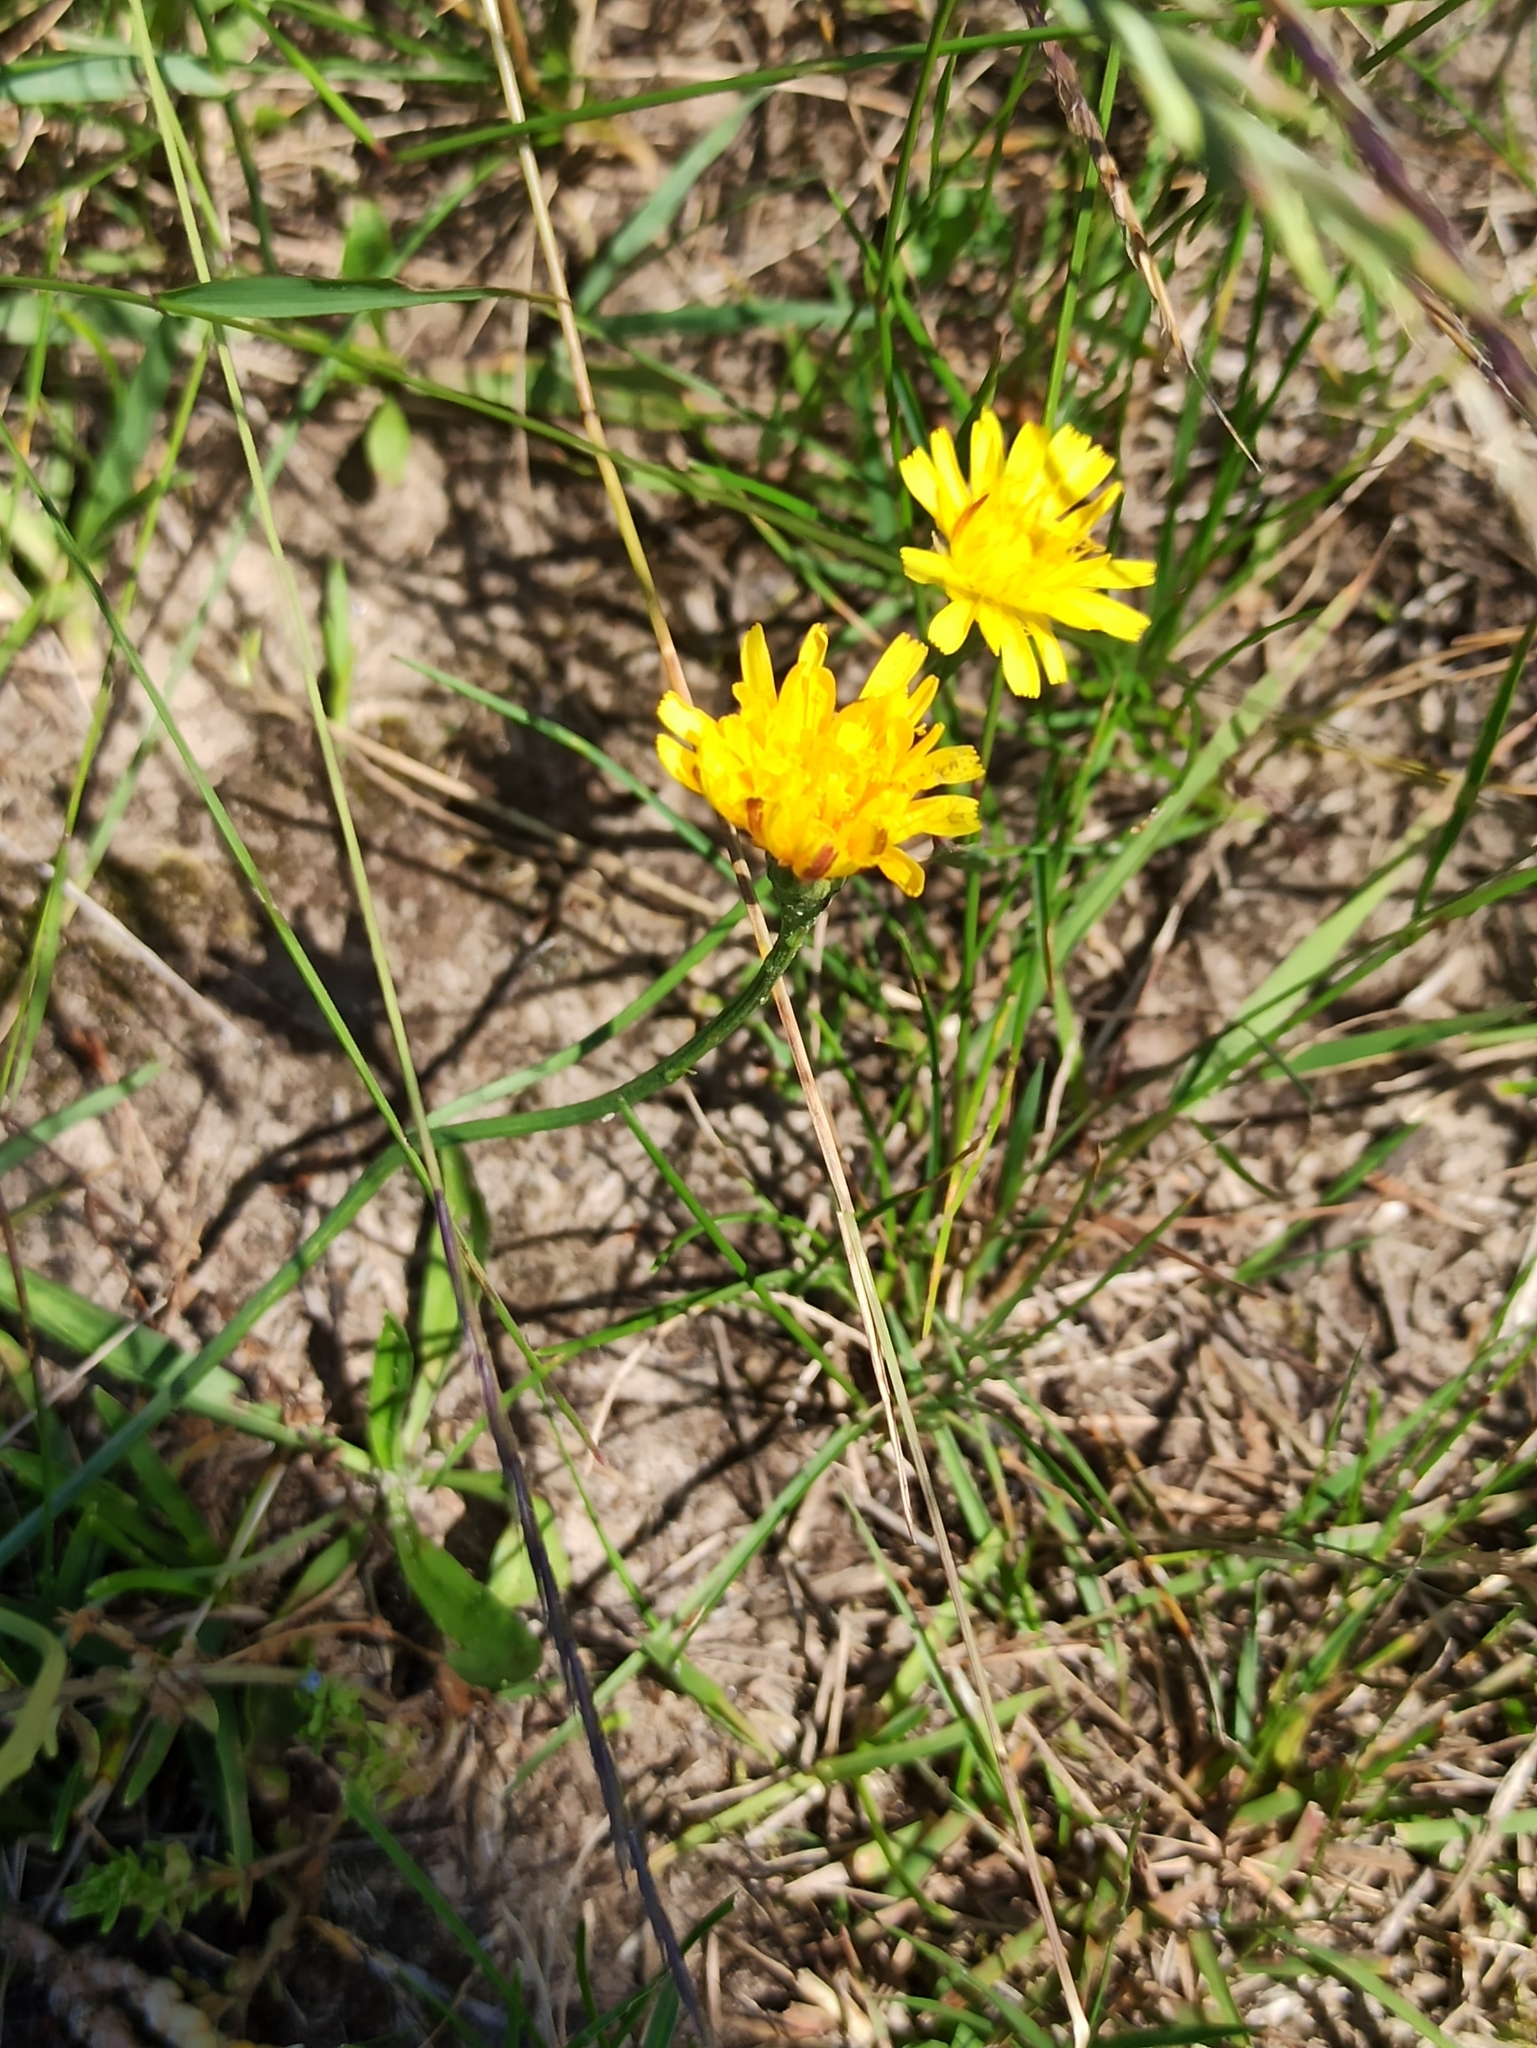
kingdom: Plantae
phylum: Tracheophyta
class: Magnoliopsida
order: Asterales
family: Asteraceae
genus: Scorzoneroides
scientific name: Scorzoneroides autumnalis
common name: Autumn hawkbit
